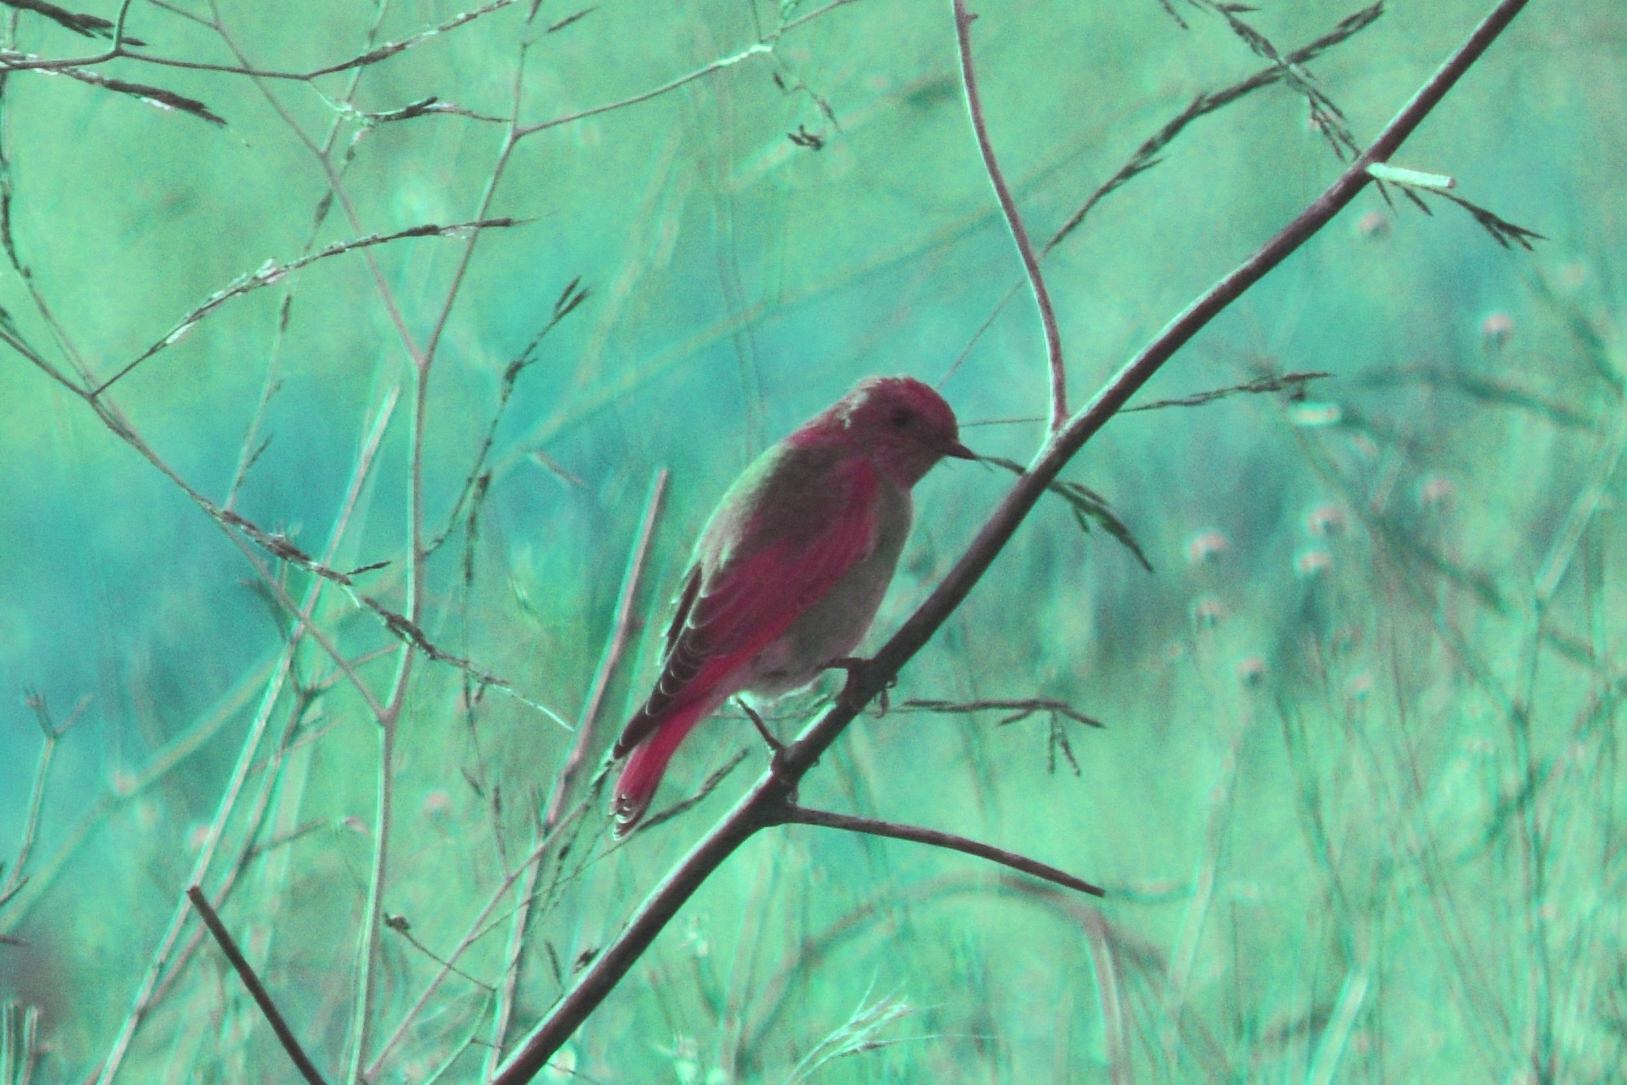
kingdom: Animalia
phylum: Chordata
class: Aves
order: Passeriformes
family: Turdidae
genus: Sialia
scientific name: Sialia mexicana
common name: Western bluebird
